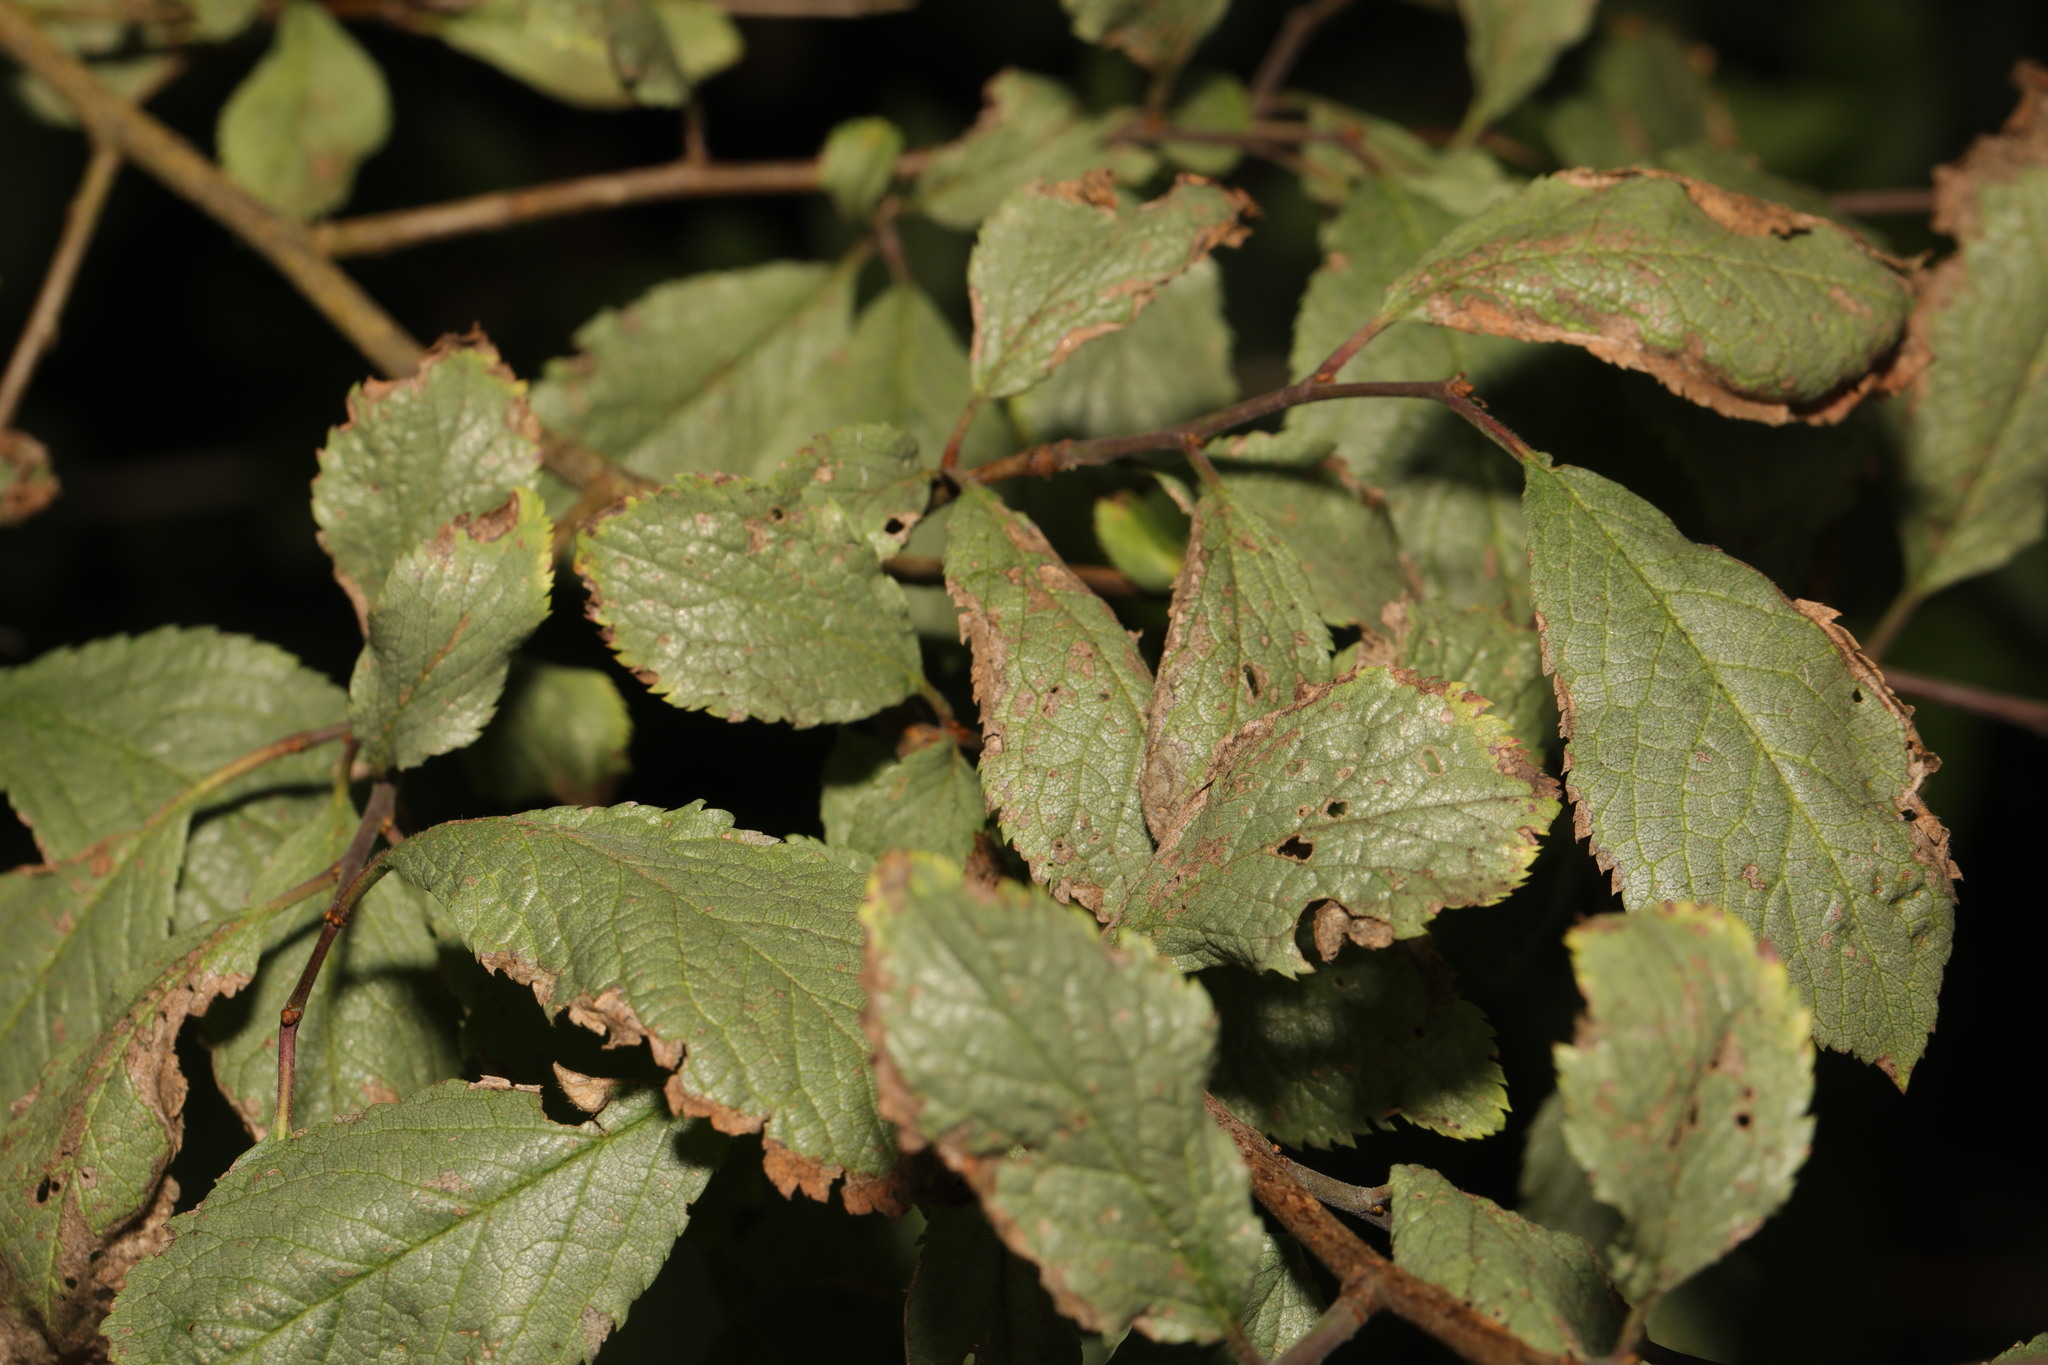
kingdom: Plantae
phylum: Tracheophyta
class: Magnoliopsida
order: Rosales
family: Rosaceae
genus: Prunus
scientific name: Prunus spinosa
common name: Blackthorn
